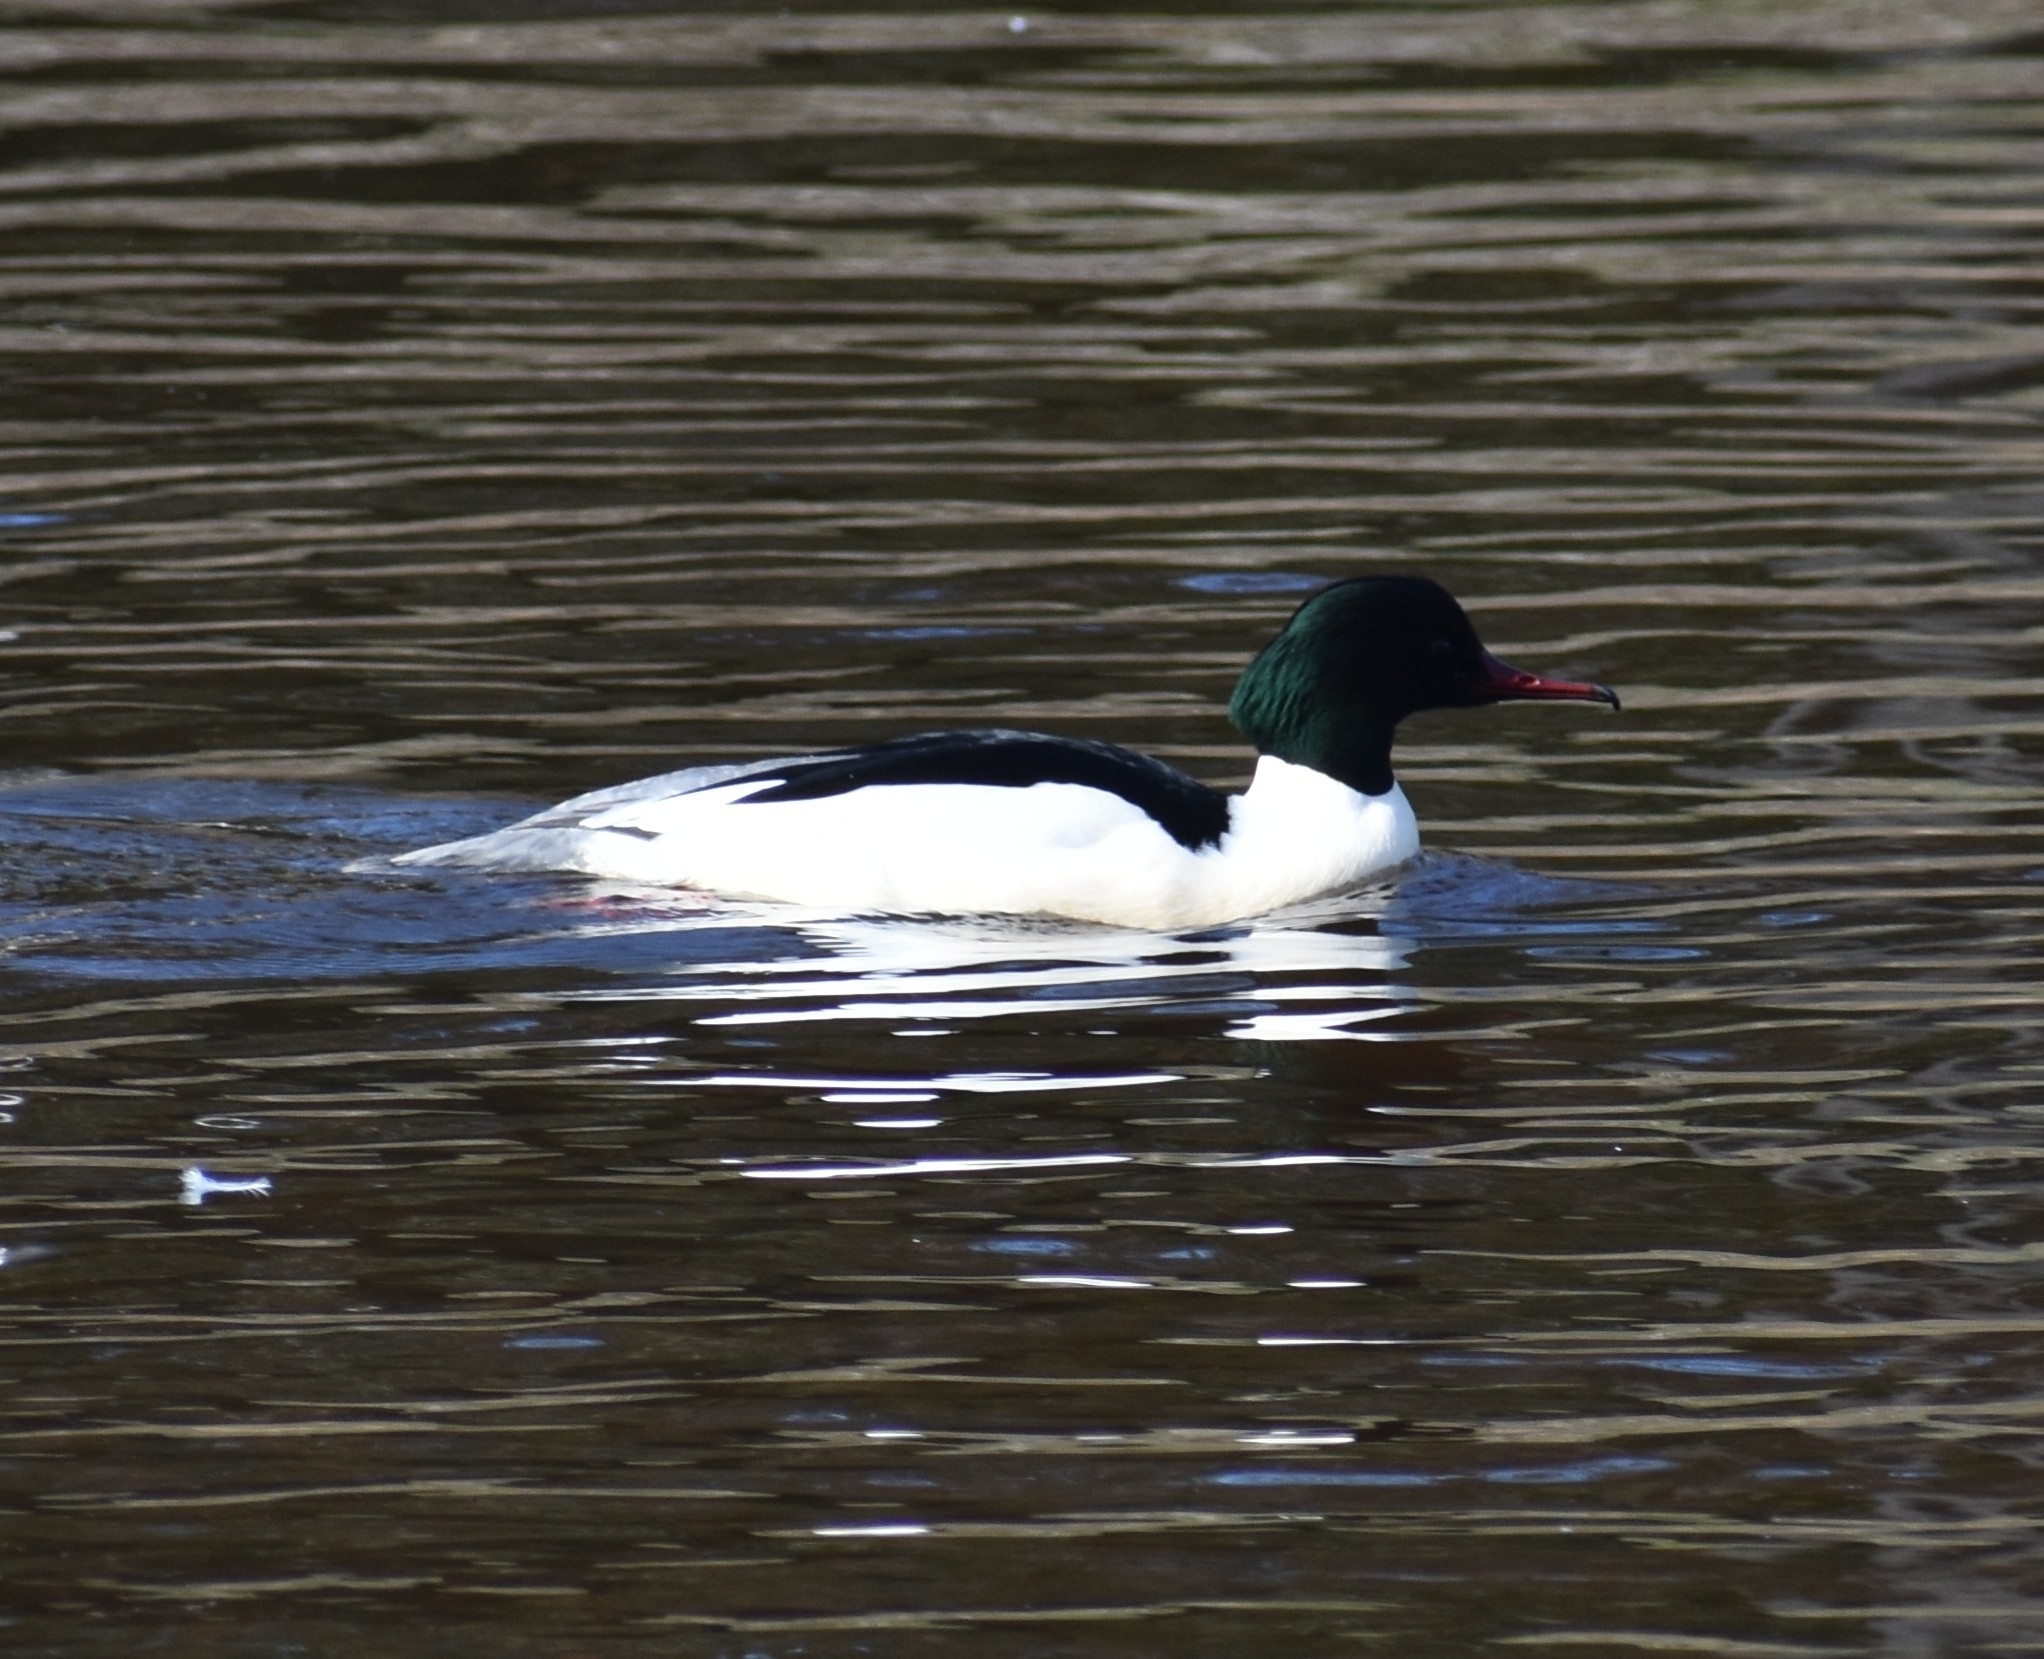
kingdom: Animalia
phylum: Chordata
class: Aves
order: Anseriformes
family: Anatidae
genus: Mergus
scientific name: Mergus merganser
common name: Common merganser
